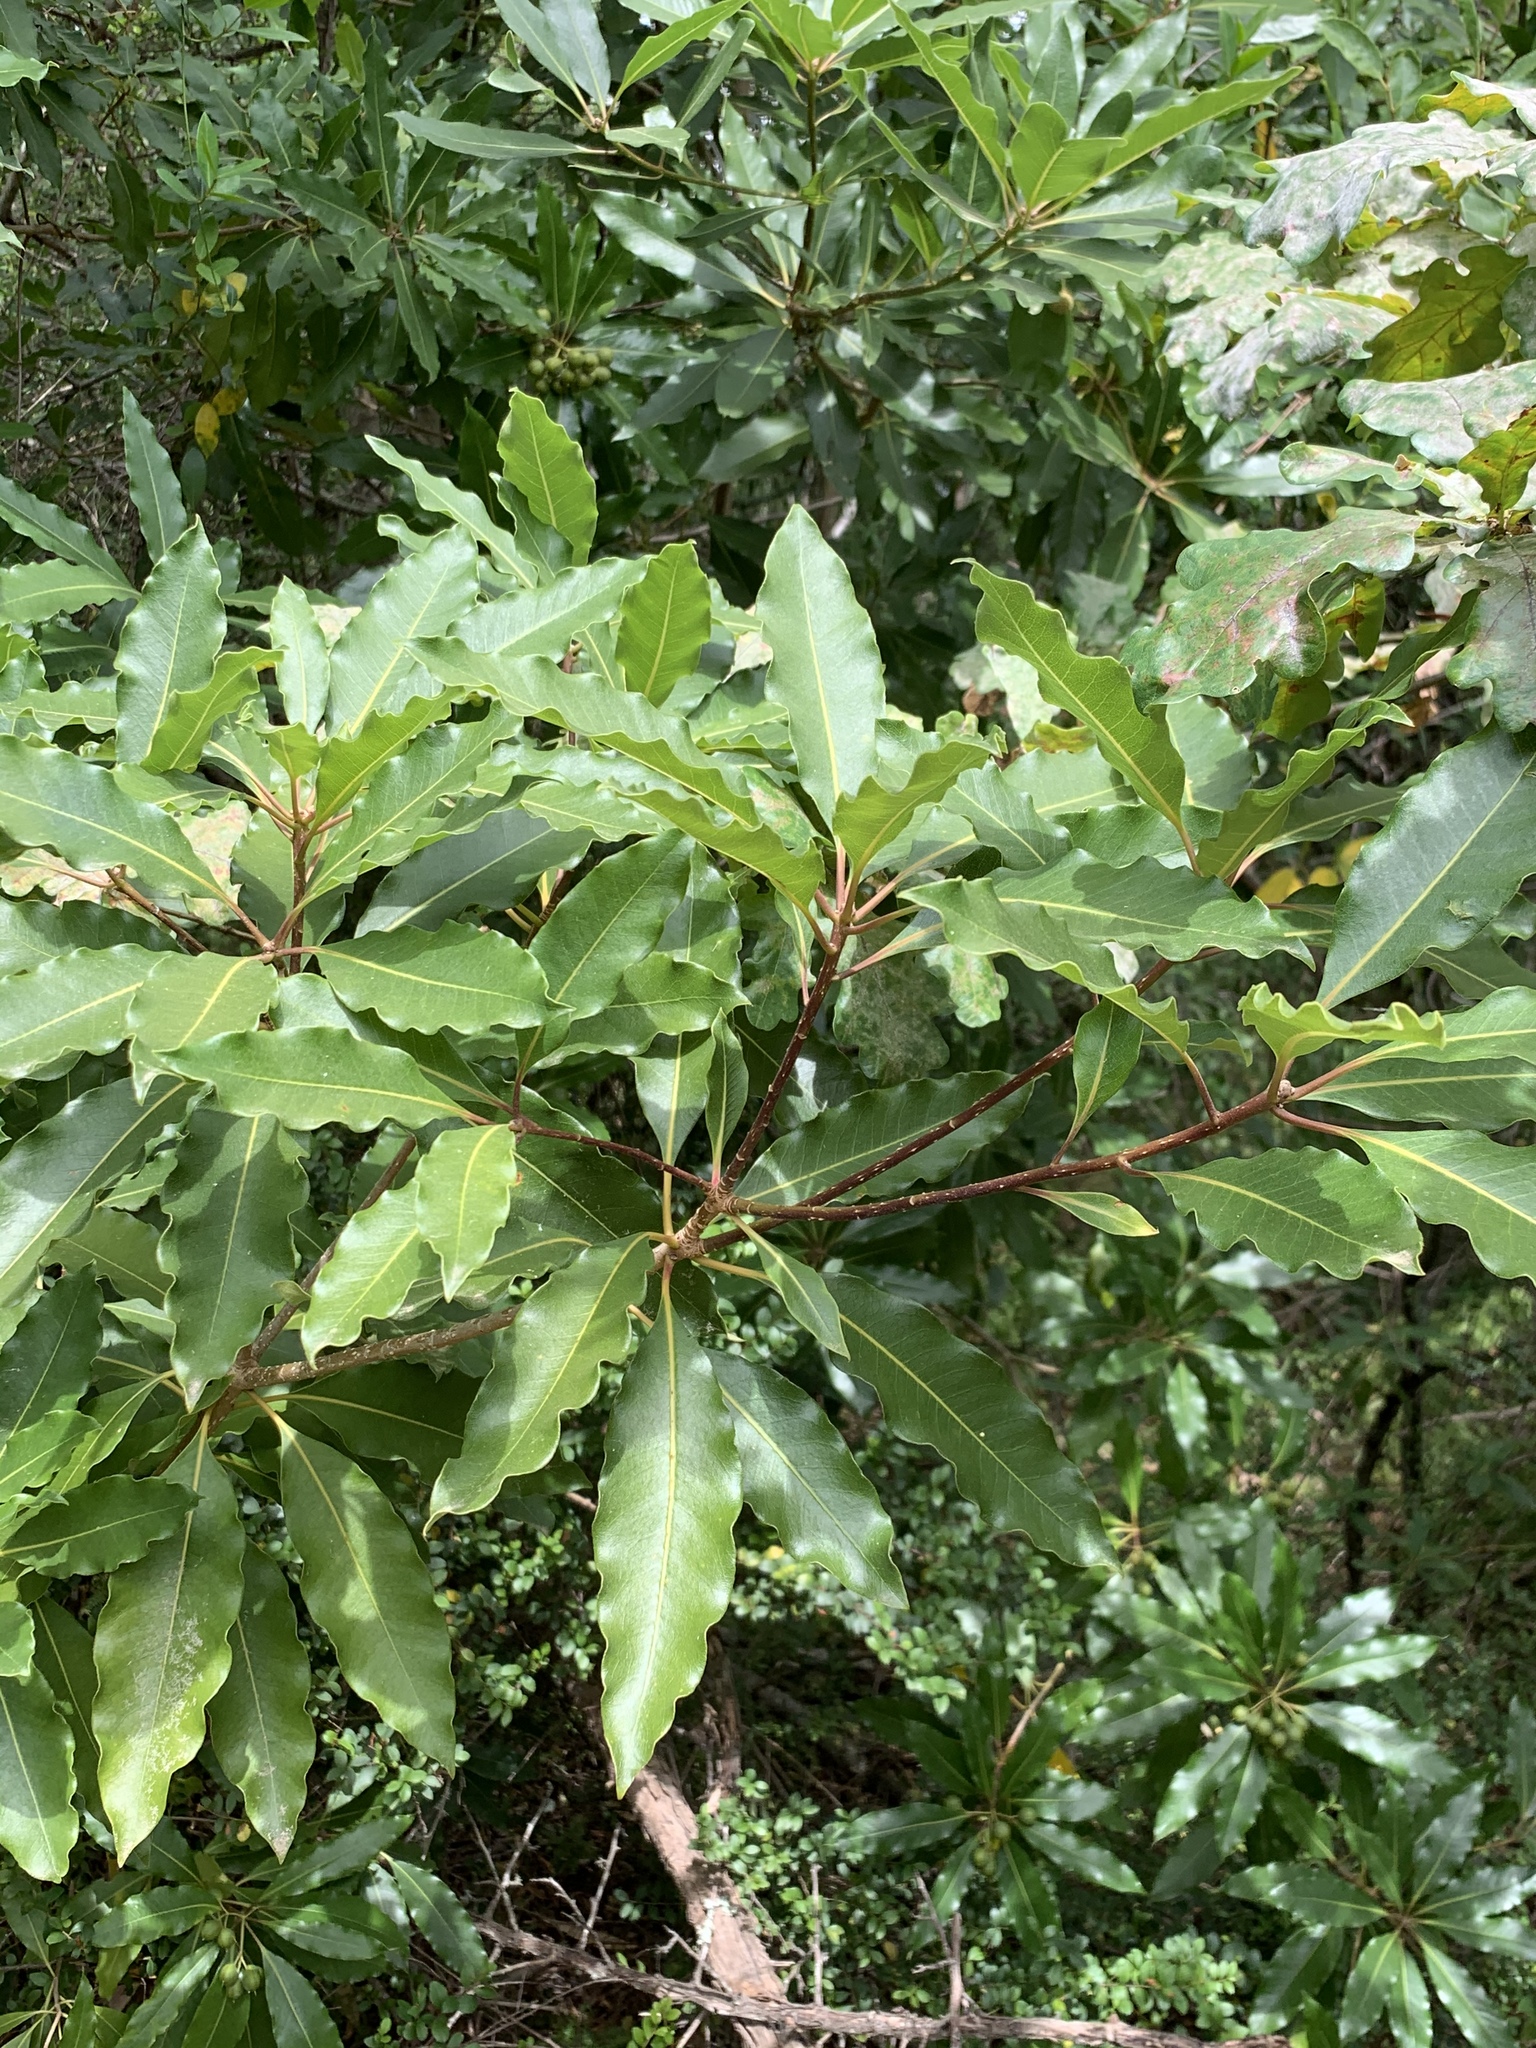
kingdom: Plantae
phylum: Tracheophyta
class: Magnoliopsida
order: Apiales
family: Pittosporaceae
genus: Pittosporum
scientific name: Pittosporum undulatum
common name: Australian cheesewood
